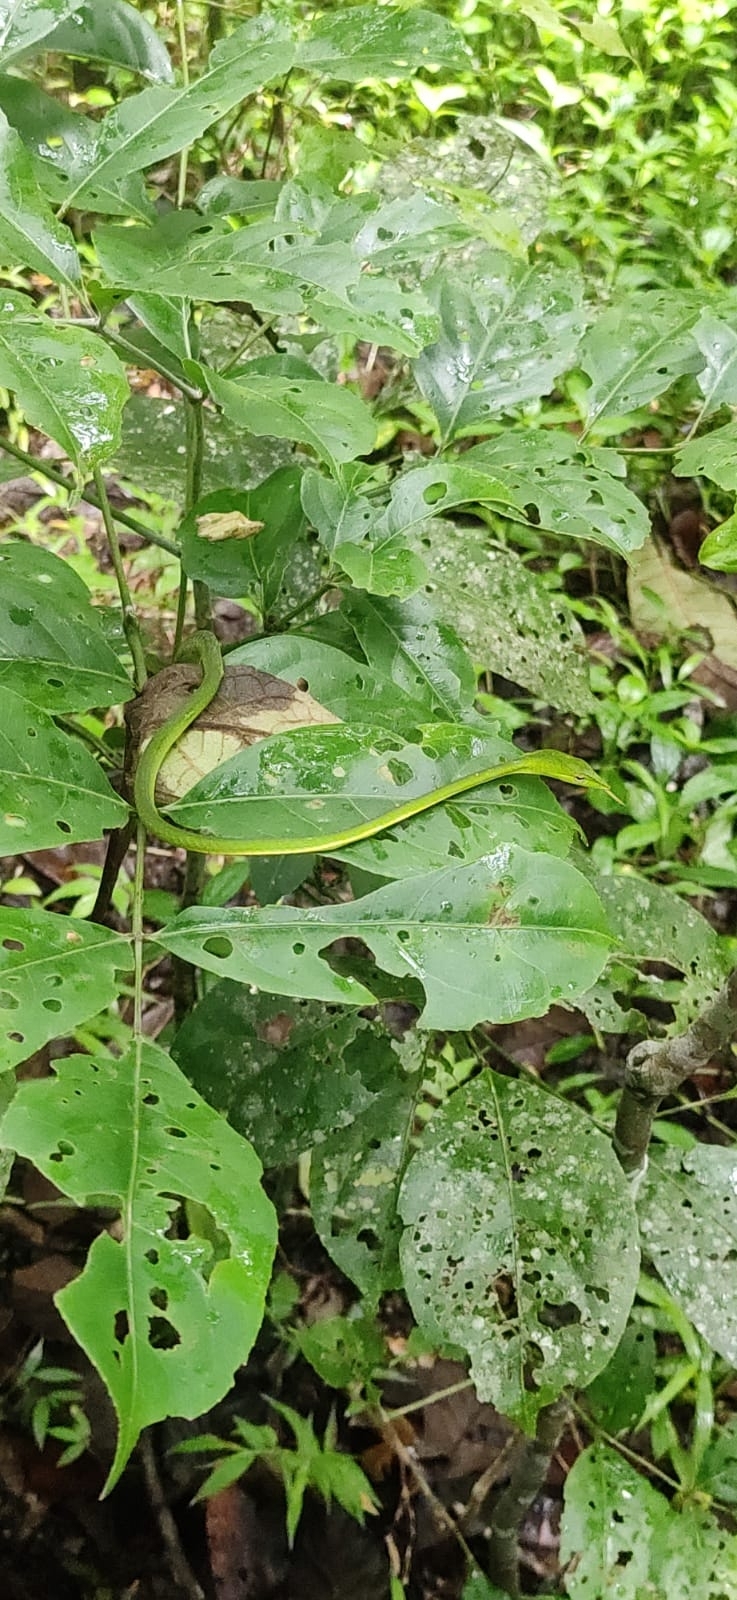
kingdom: Animalia
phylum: Chordata
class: Squamata
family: Colubridae
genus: Ahaetulla
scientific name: Ahaetulla isabellina
